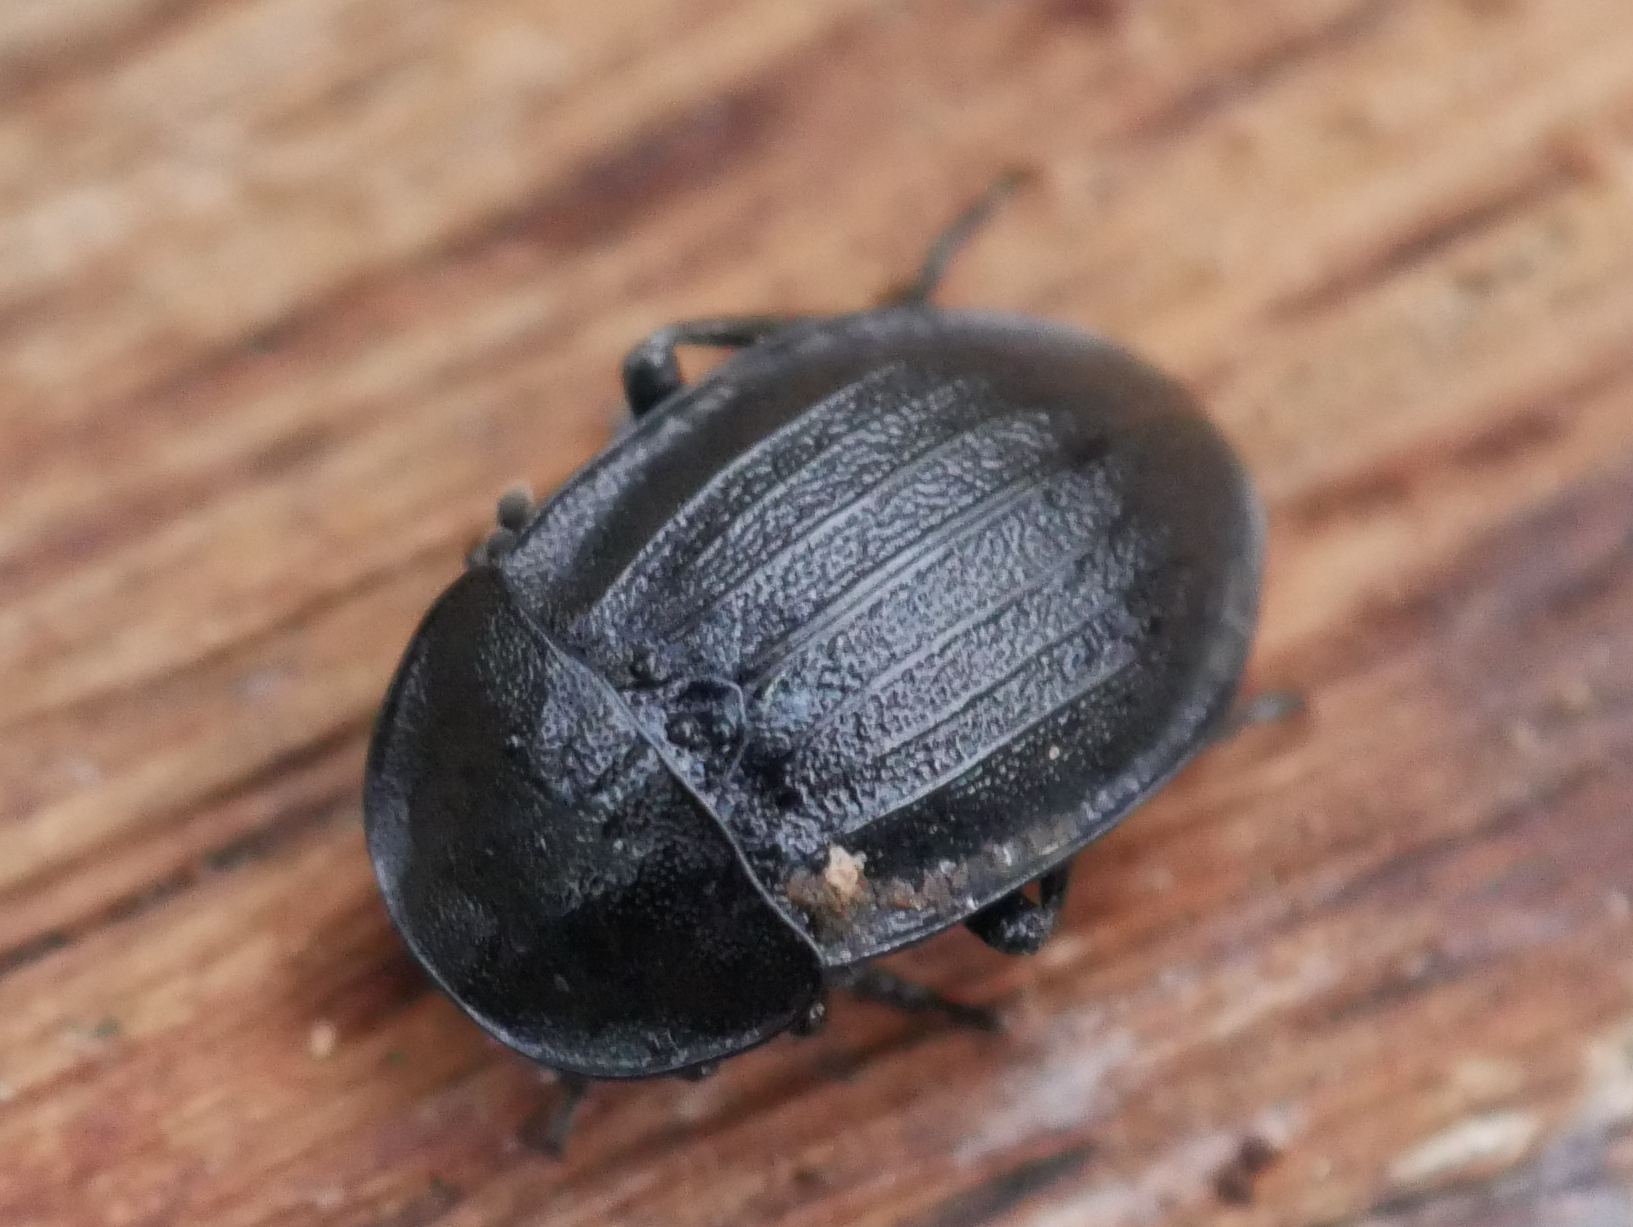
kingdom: Animalia
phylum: Arthropoda
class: Insecta
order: Coleoptera
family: Staphylinidae
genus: Silpha
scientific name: Silpha atrata
